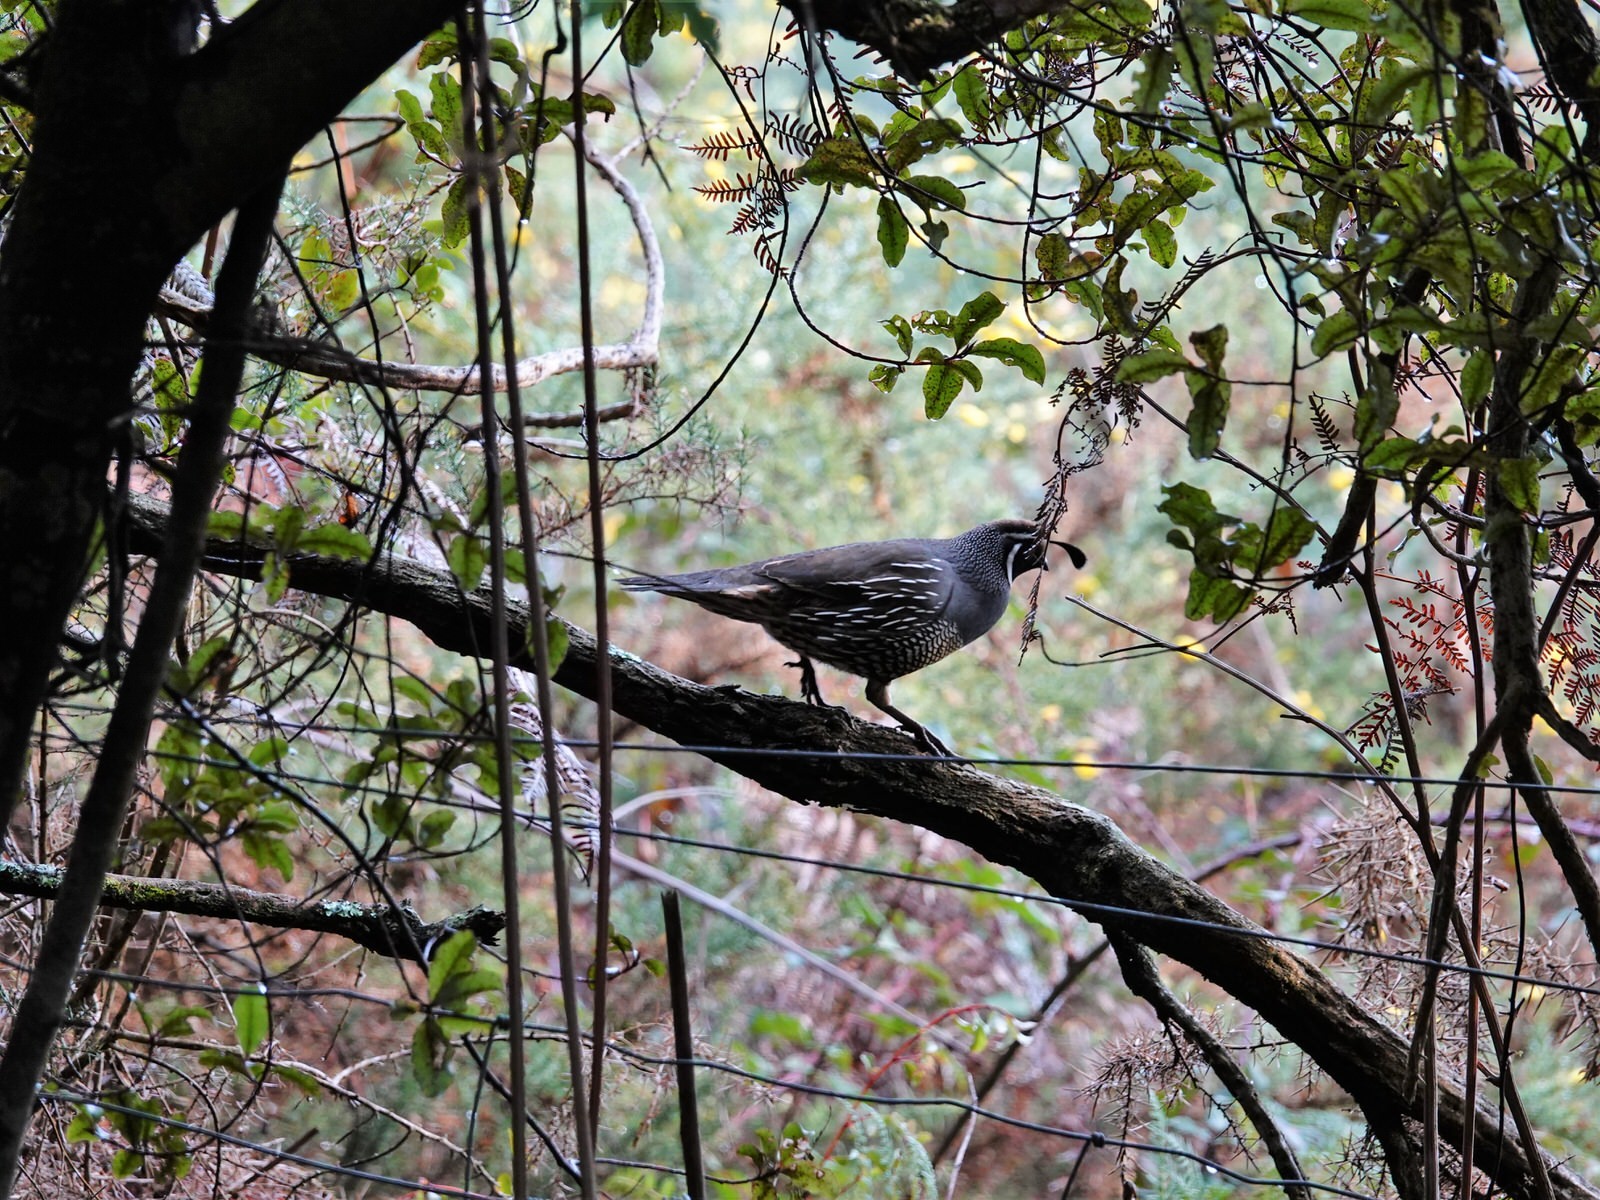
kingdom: Animalia
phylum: Chordata
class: Aves
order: Galliformes
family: Odontophoridae
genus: Callipepla
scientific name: Callipepla californica
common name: California quail
